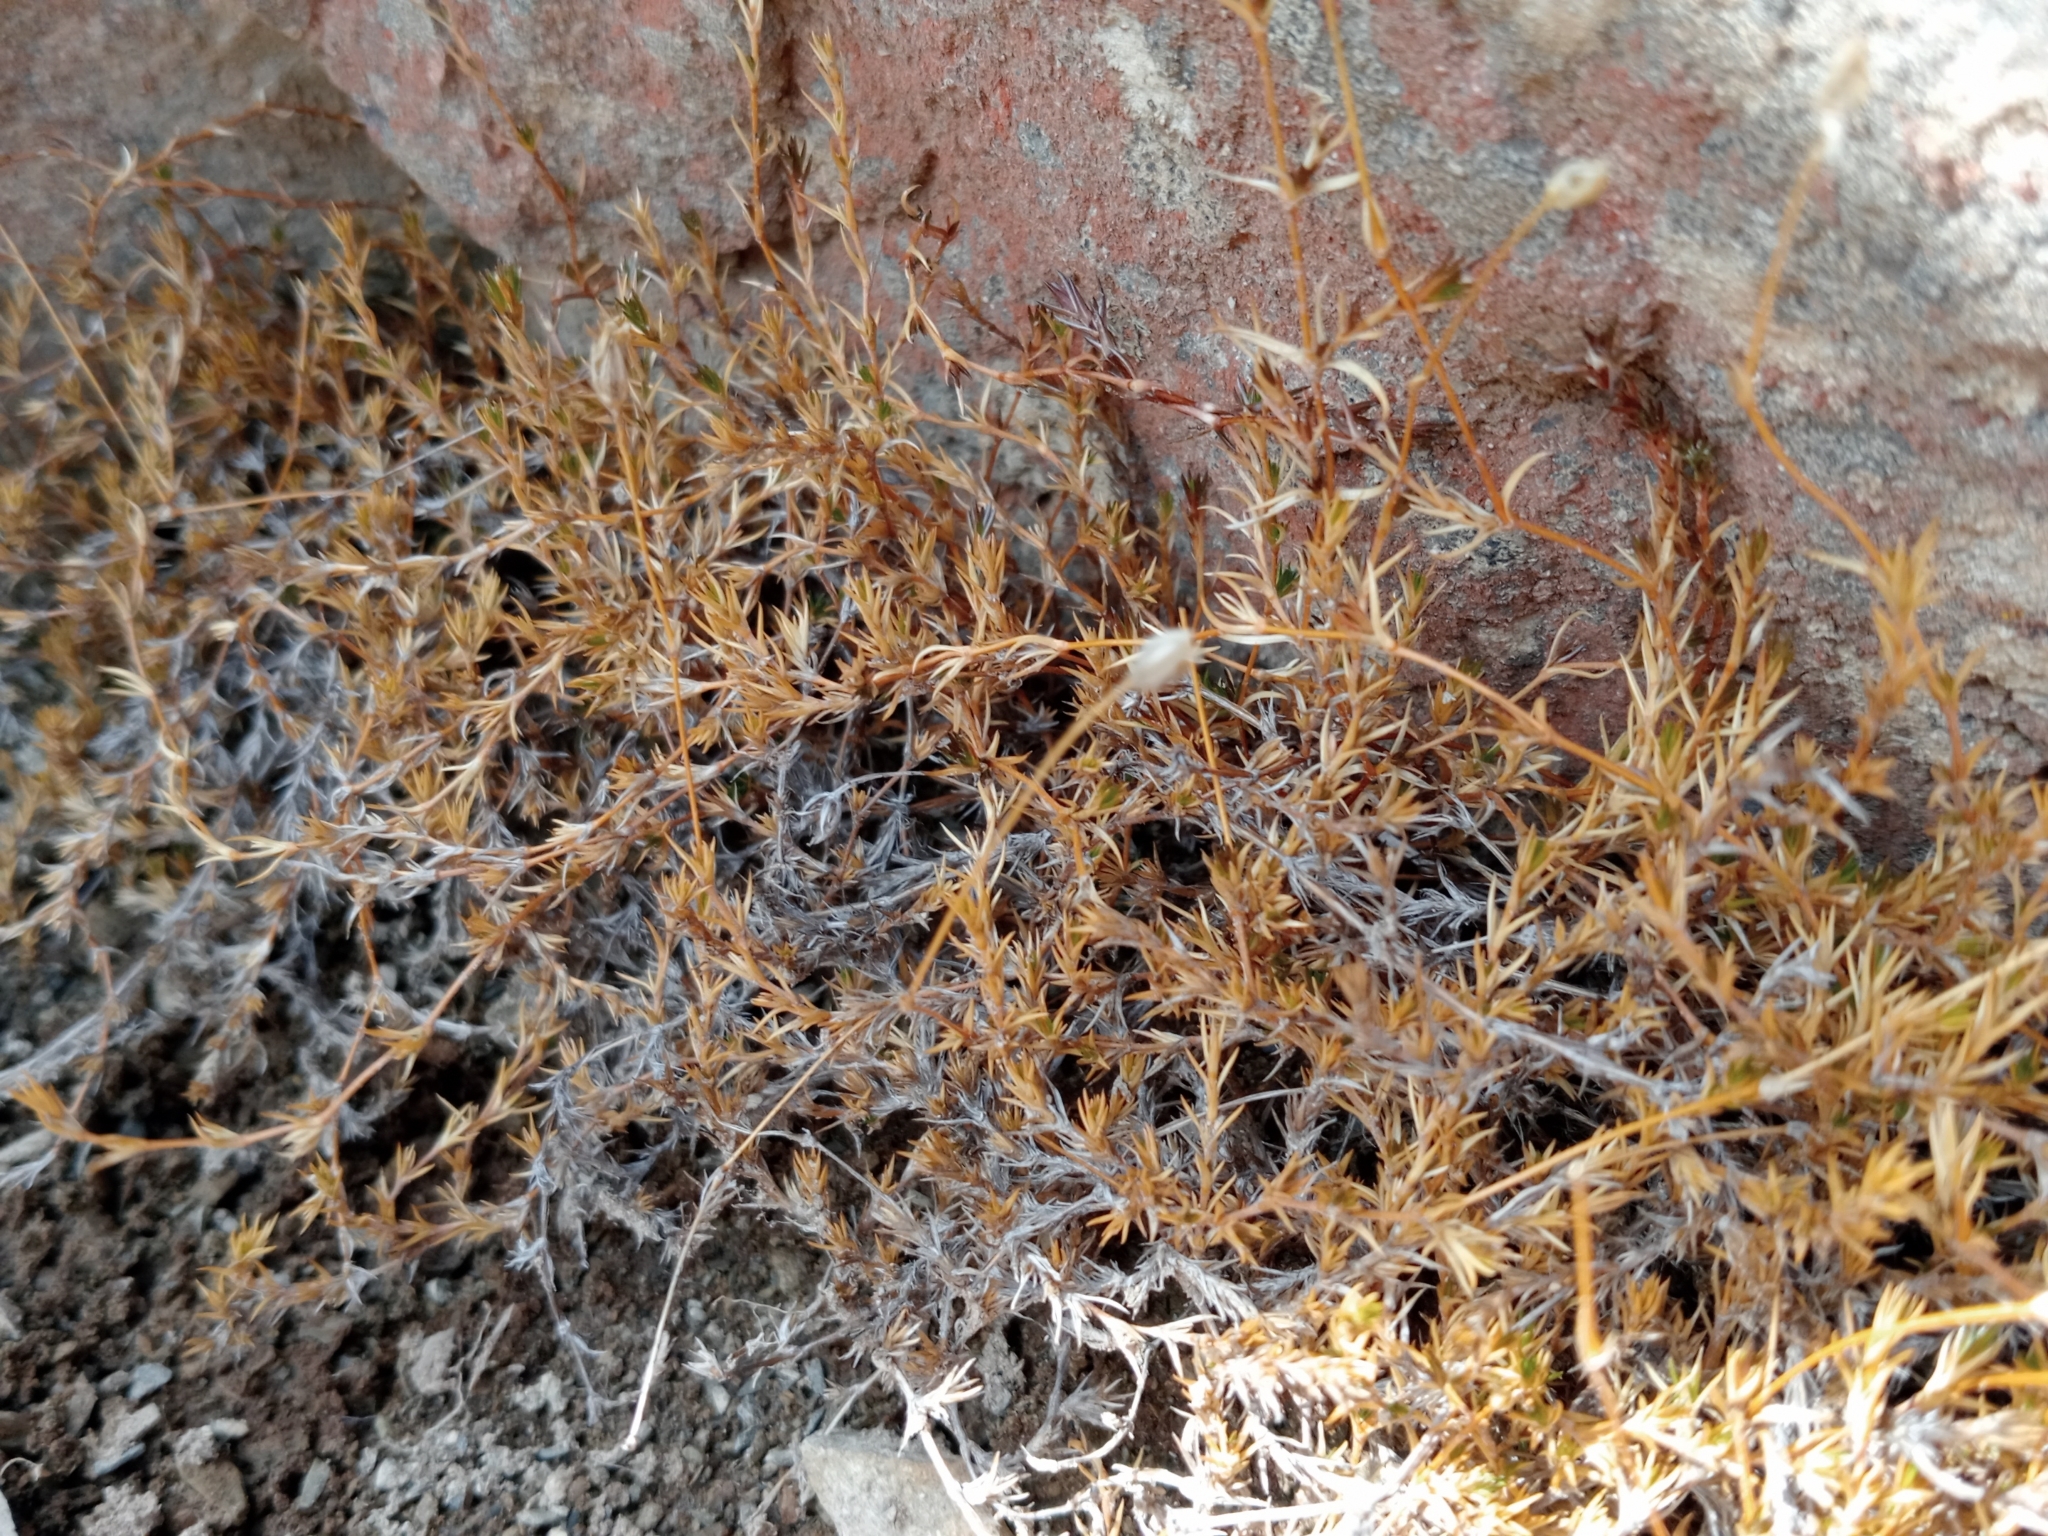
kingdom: Plantae
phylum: Tracheophyta
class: Magnoliopsida
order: Caryophyllales
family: Caryophyllaceae
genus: Stellaria
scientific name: Stellaria gracilenta
